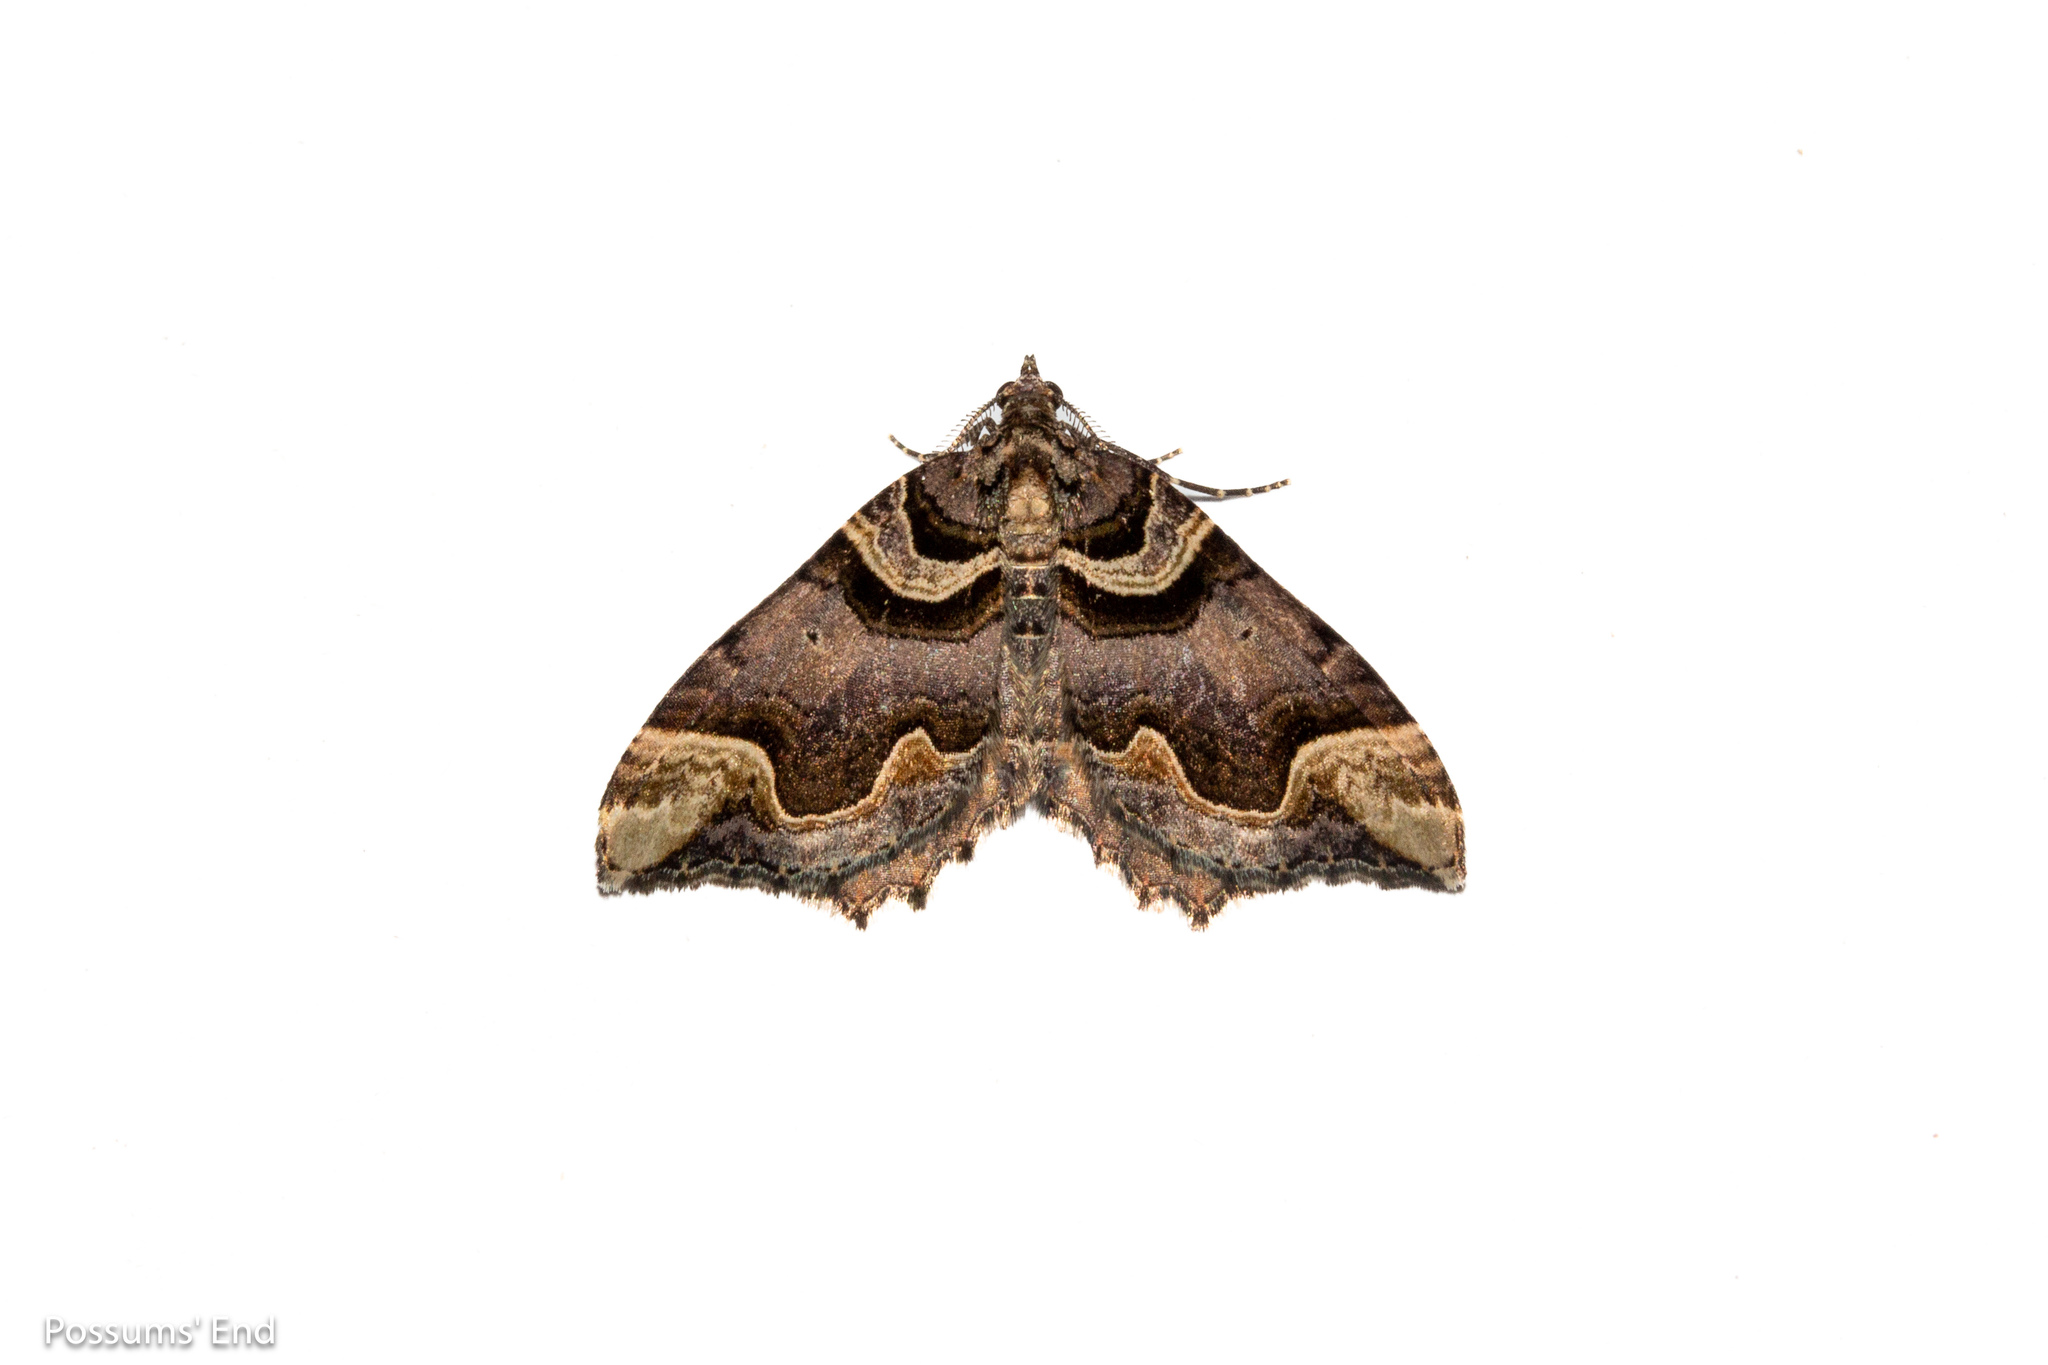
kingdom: Animalia
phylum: Arthropoda
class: Insecta
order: Lepidoptera
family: Geometridae
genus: Asaphodes
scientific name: Asaphodes chlamydota
